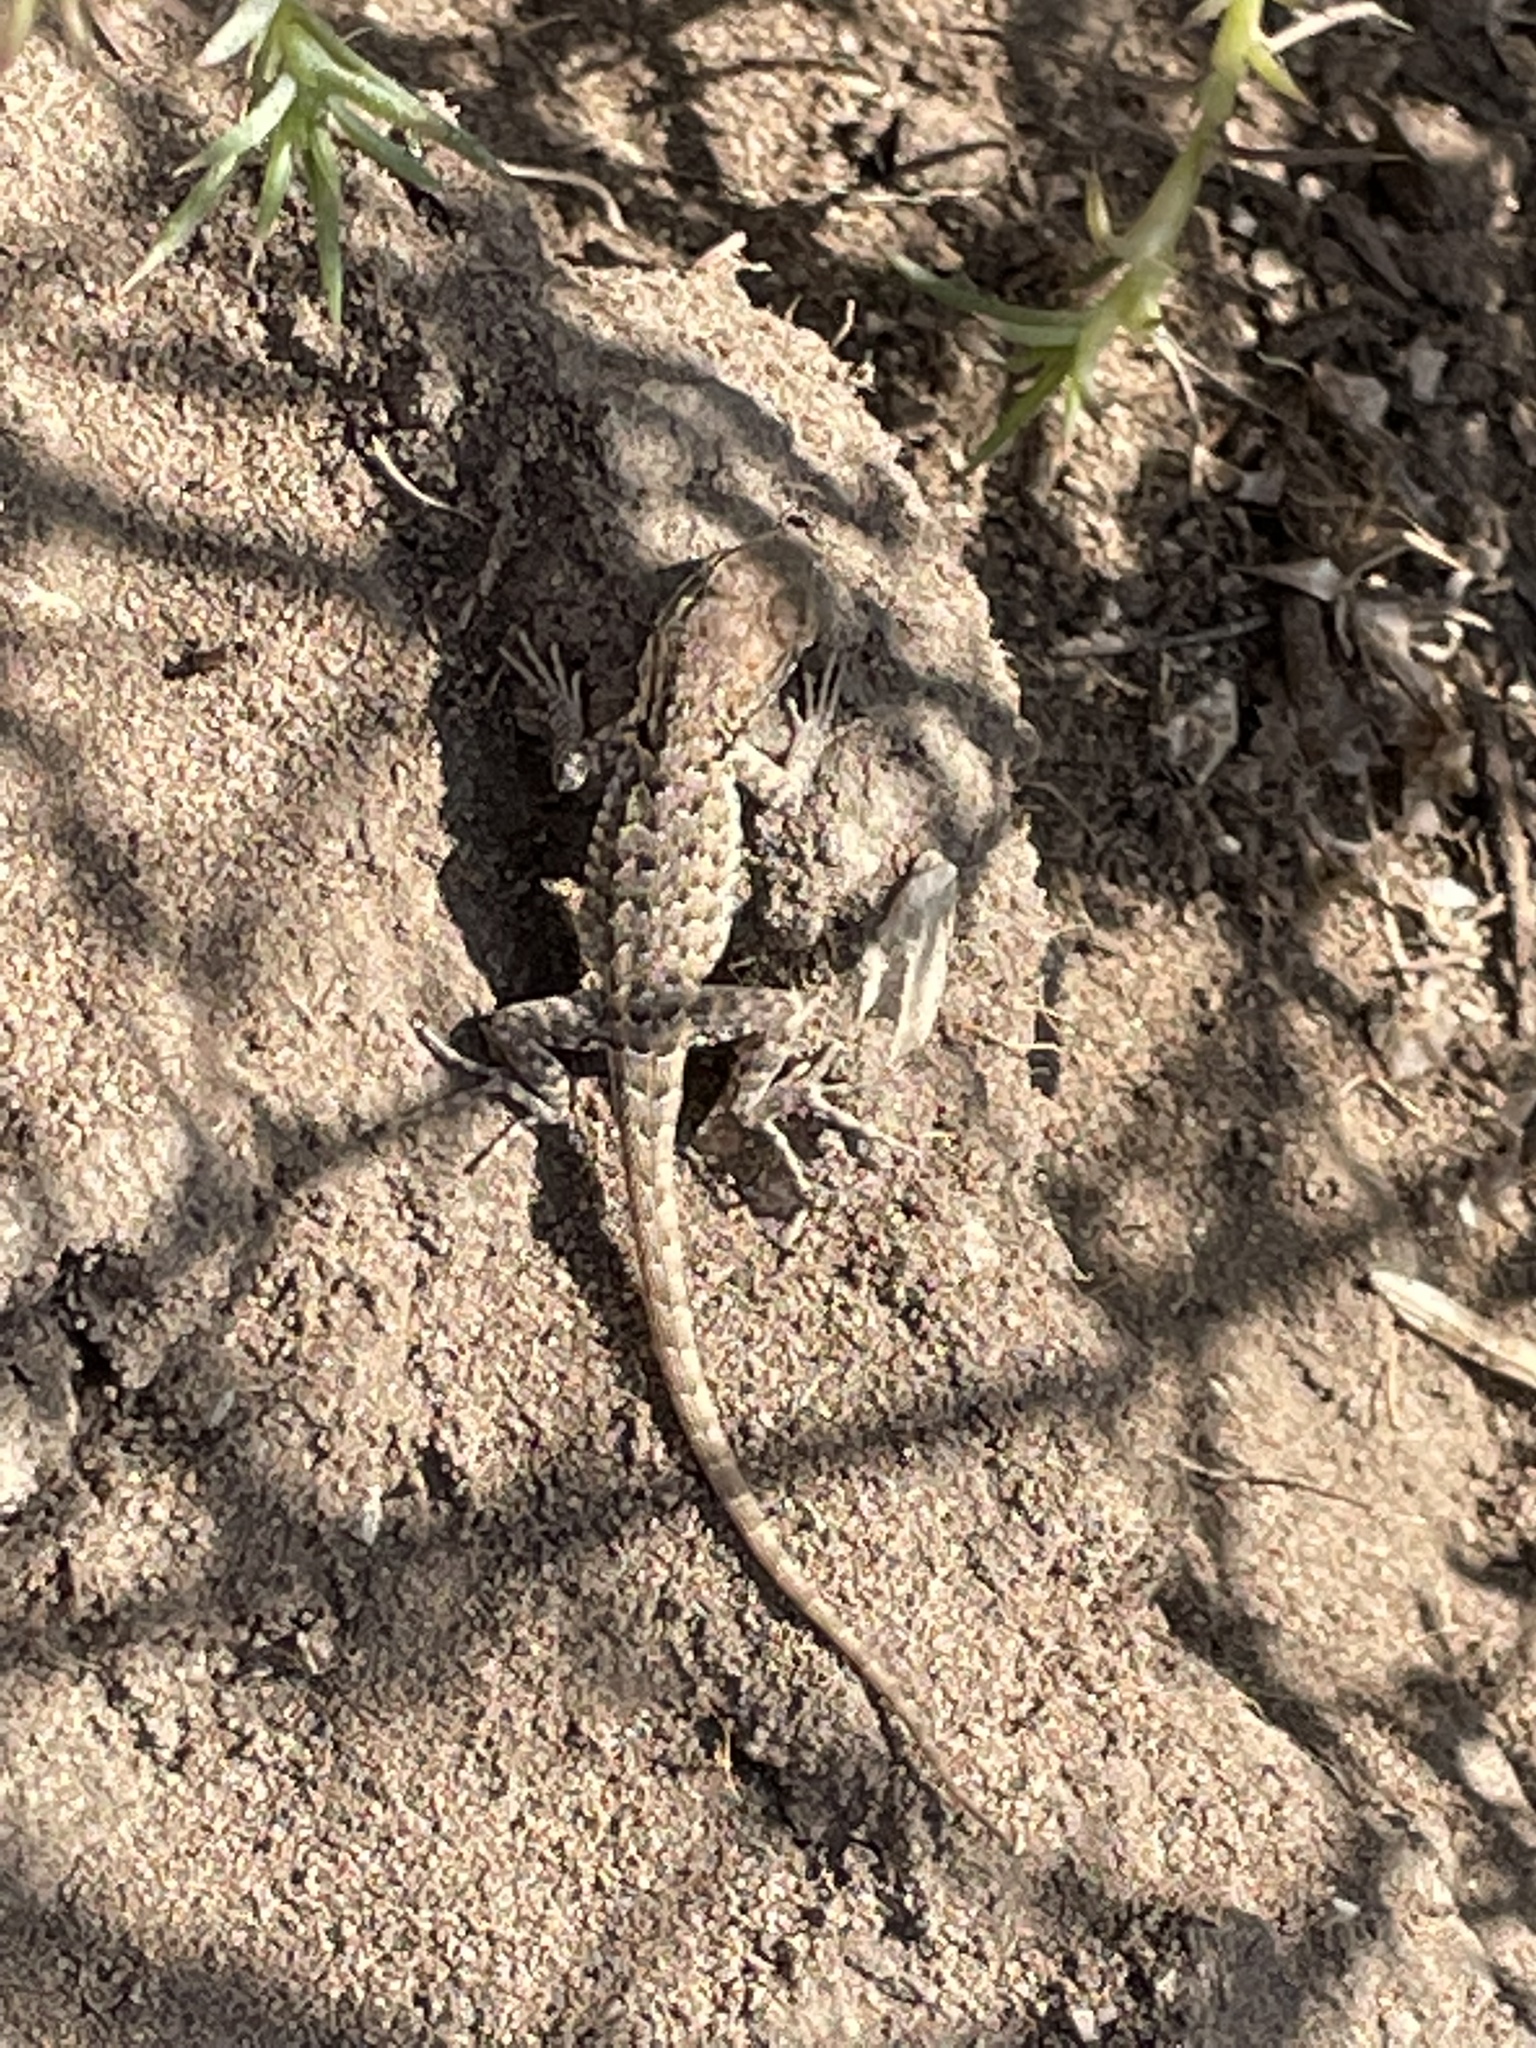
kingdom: Animalia
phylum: Chordata
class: Squamata
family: Phrynosomatidae
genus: Uta
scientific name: Uta stansburiana
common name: Side-blotched lizard
